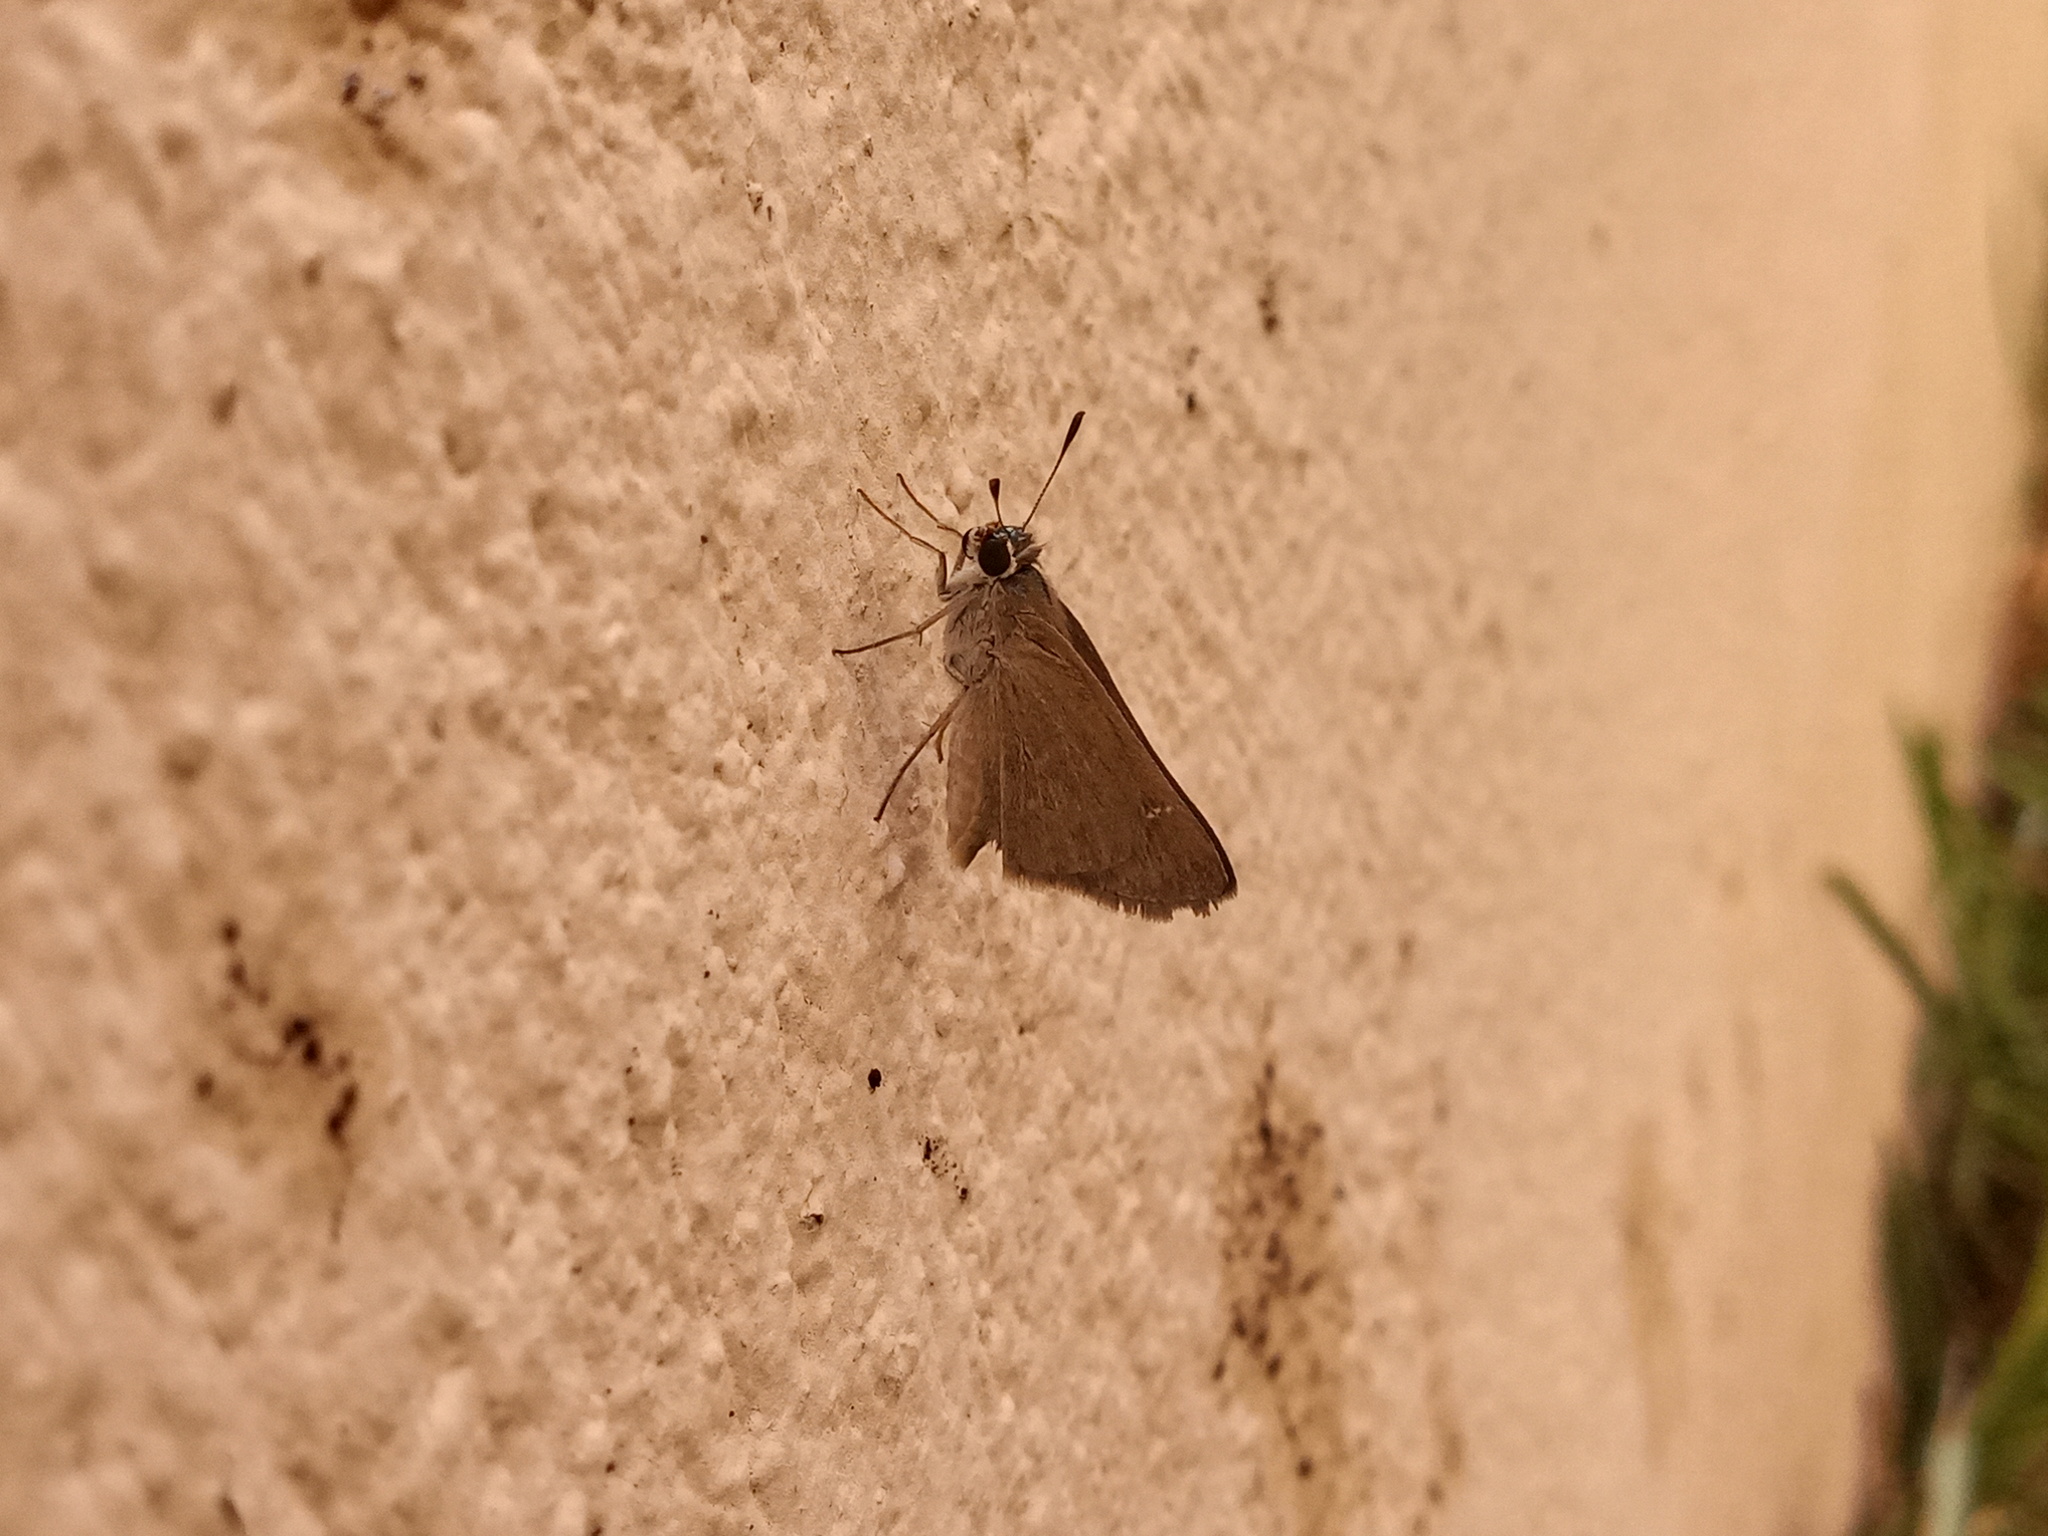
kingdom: Animalia
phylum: Arthropoda
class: Insecta
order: Lepidoptera
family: Hesperiidae
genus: Lerodea
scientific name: Lerodea eufala
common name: Eufala skipper
